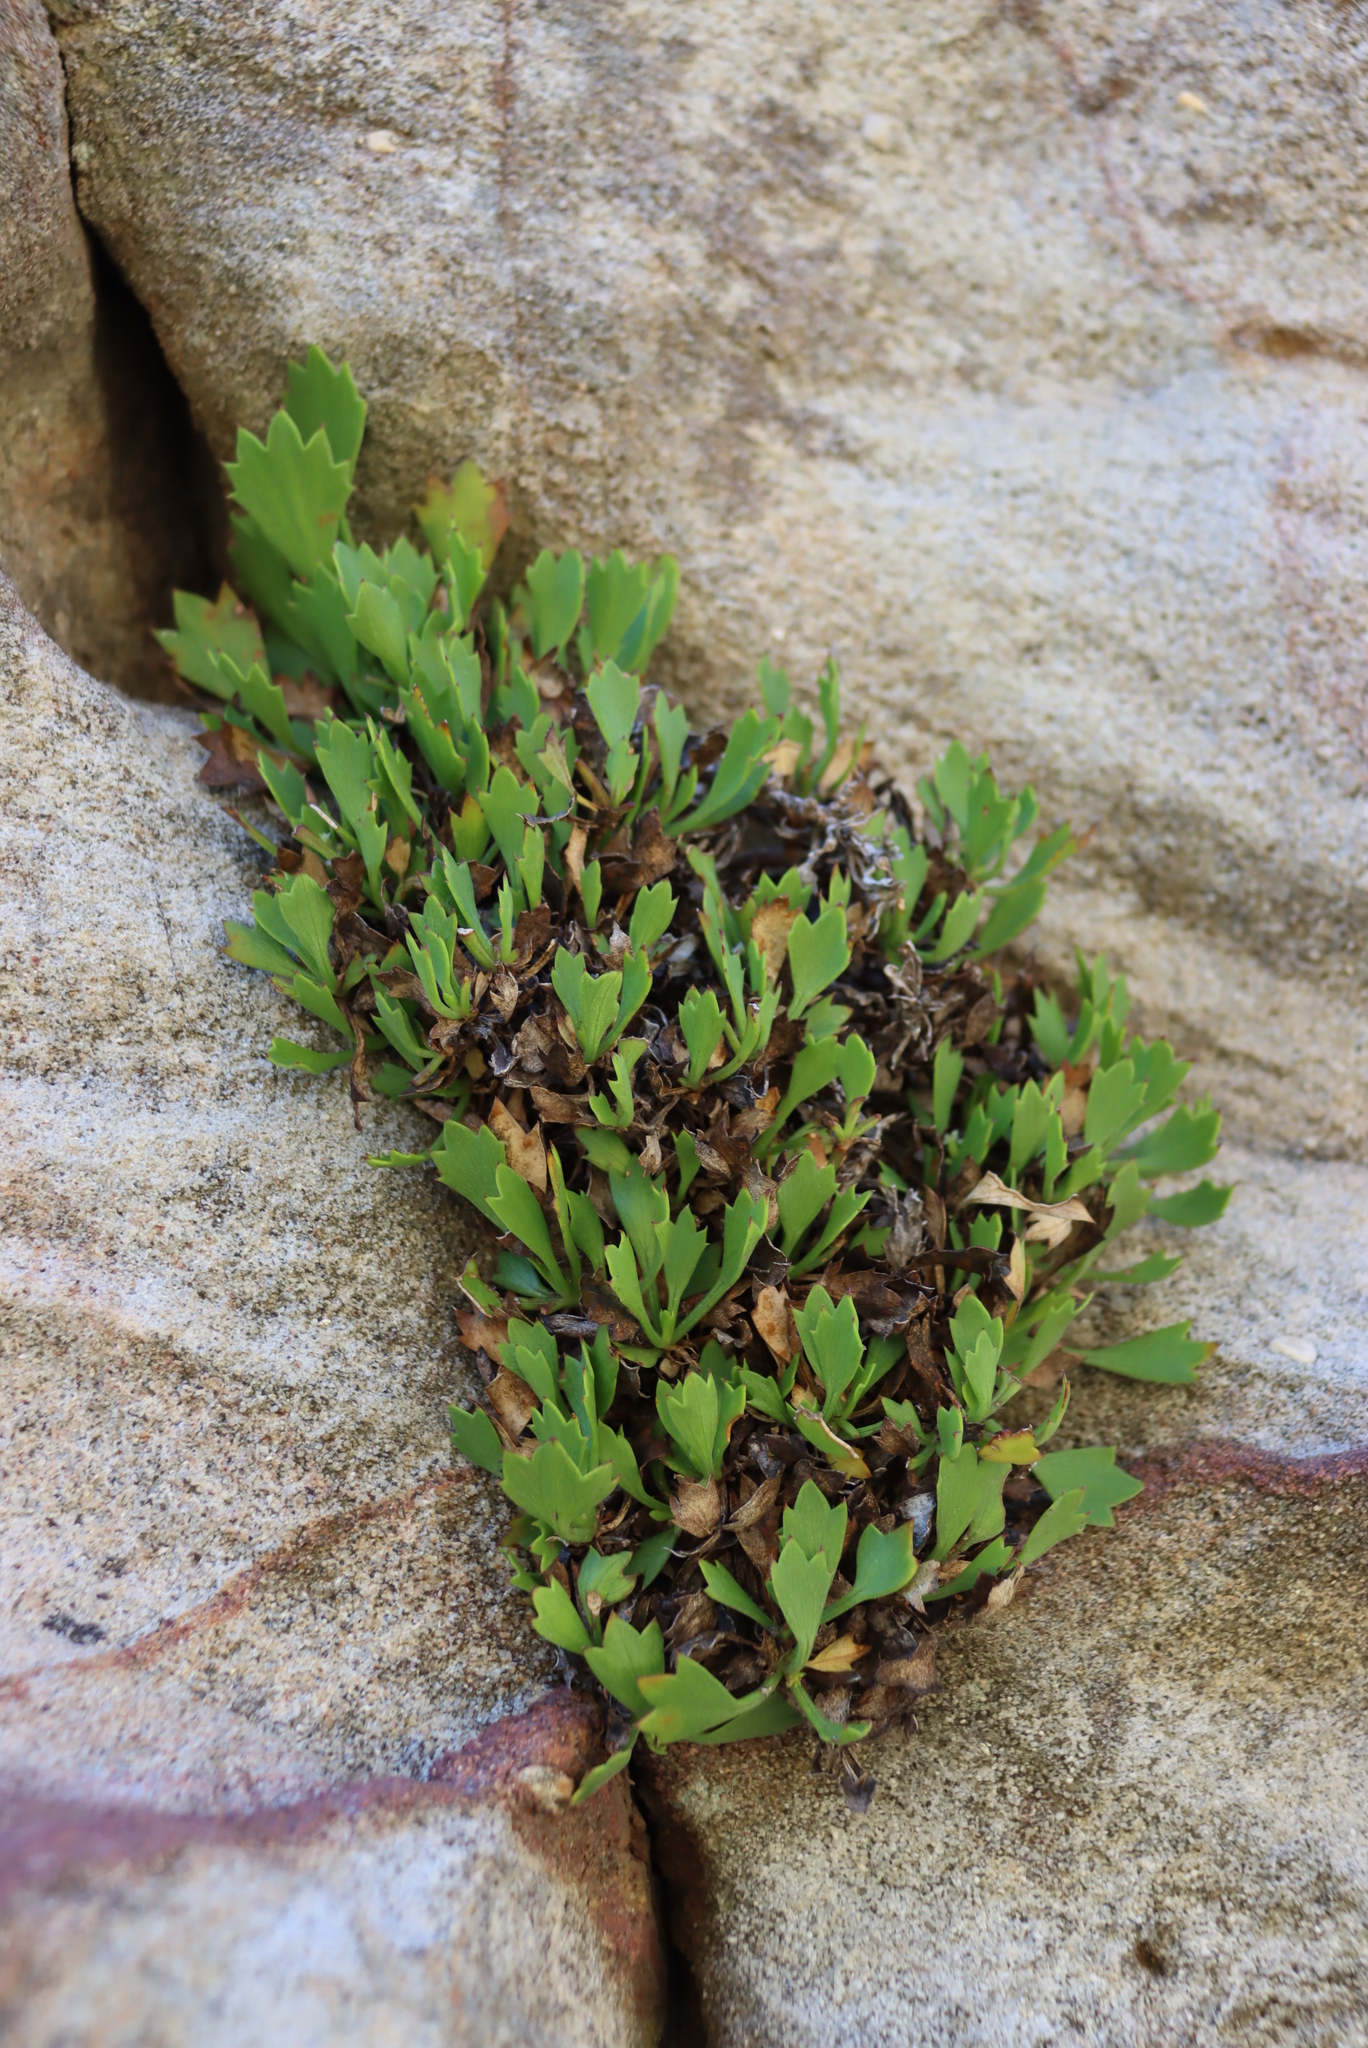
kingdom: Plantae
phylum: Tracheophyta
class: Magnoliopsida
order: Apiales
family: Apiaceae
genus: Centella
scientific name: Centella triloba
